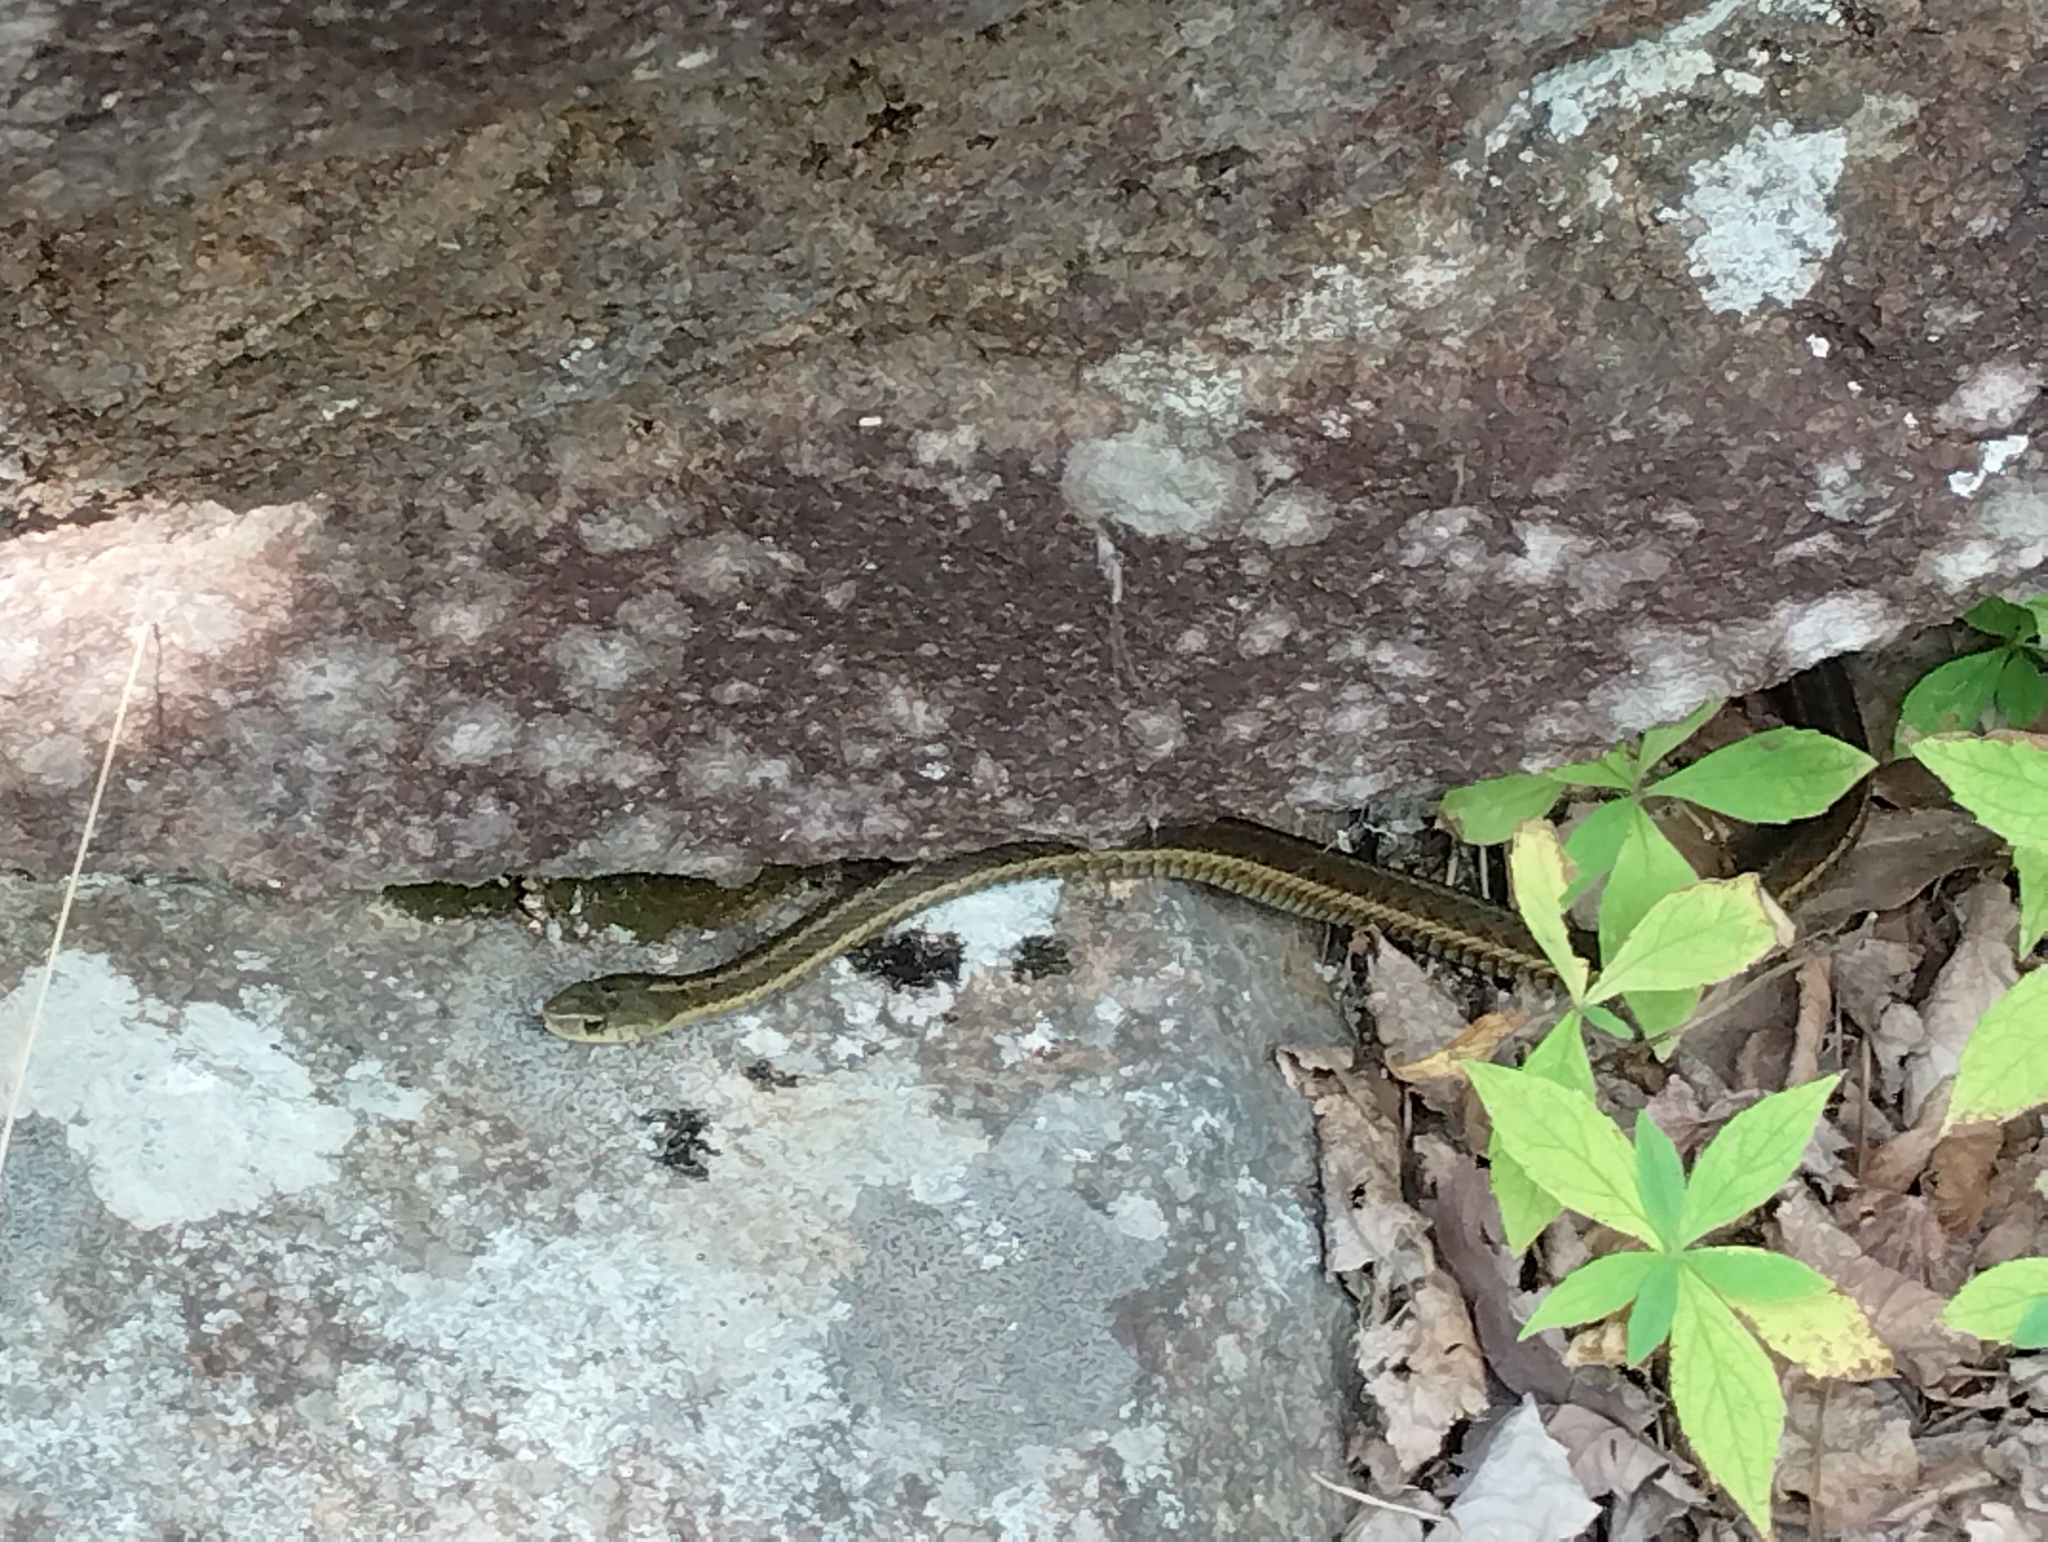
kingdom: Animalia
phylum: Chordata
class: Squamata
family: Colubridae
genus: Thamnophis
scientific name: Thamnophis sirtalis
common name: Common garter snake
